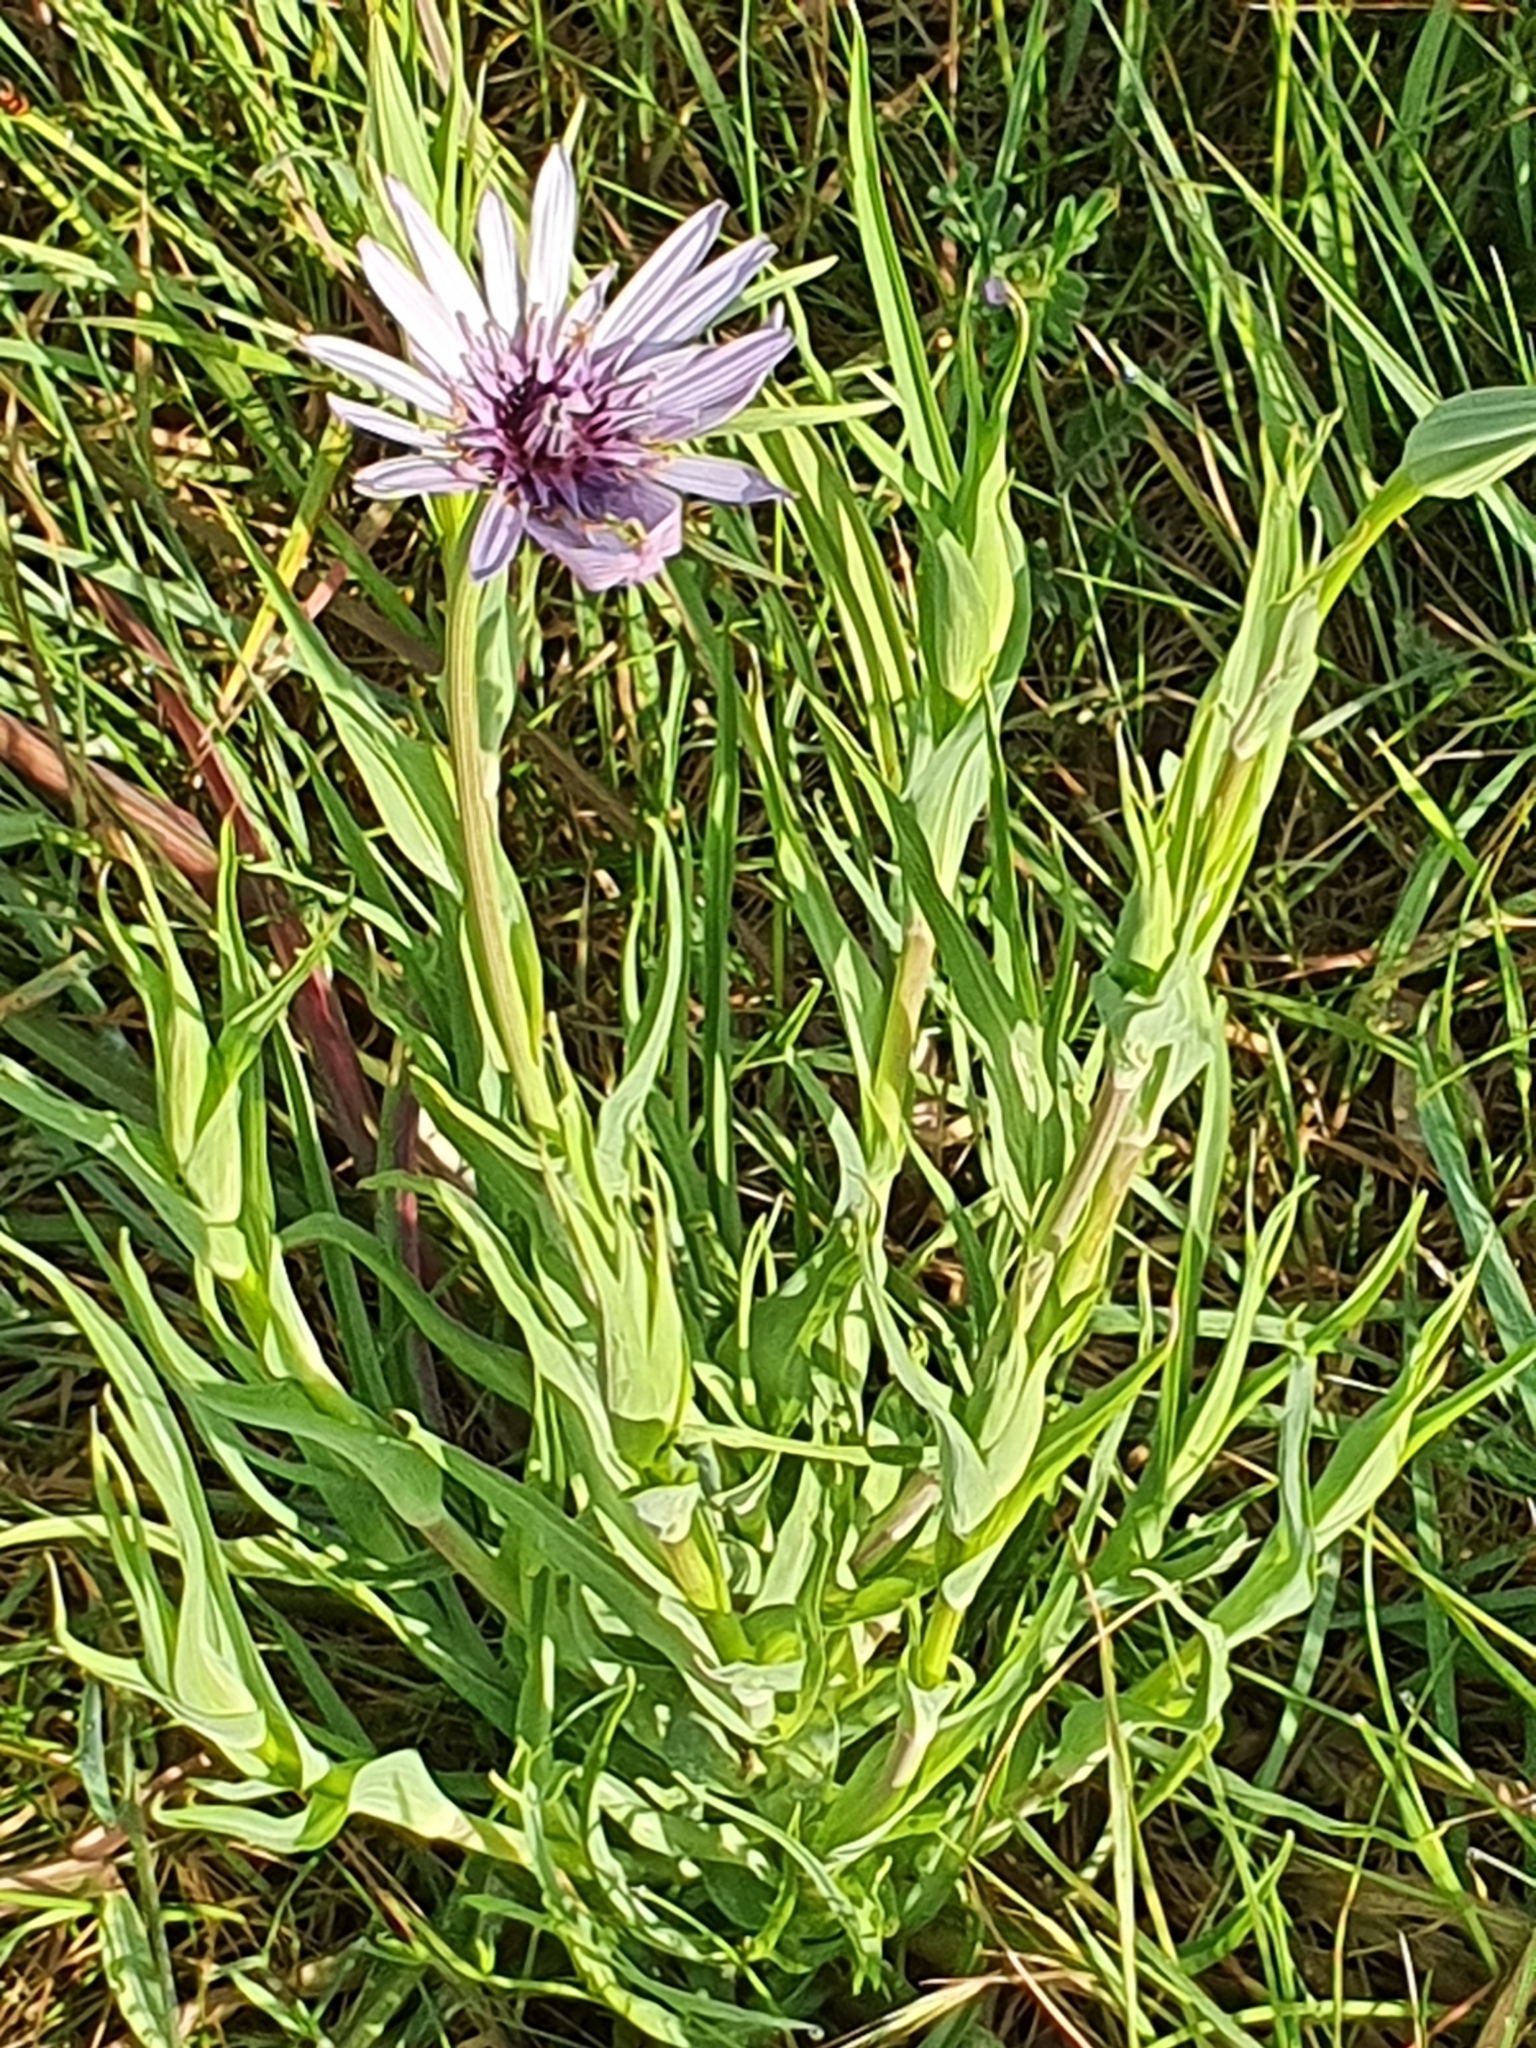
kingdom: Plantae
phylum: Tracheophyta
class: Magnoliopsida
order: Asterales
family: Asteraceae
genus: Tragopogon
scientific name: Tragopogon porrifolius
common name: Salsify
